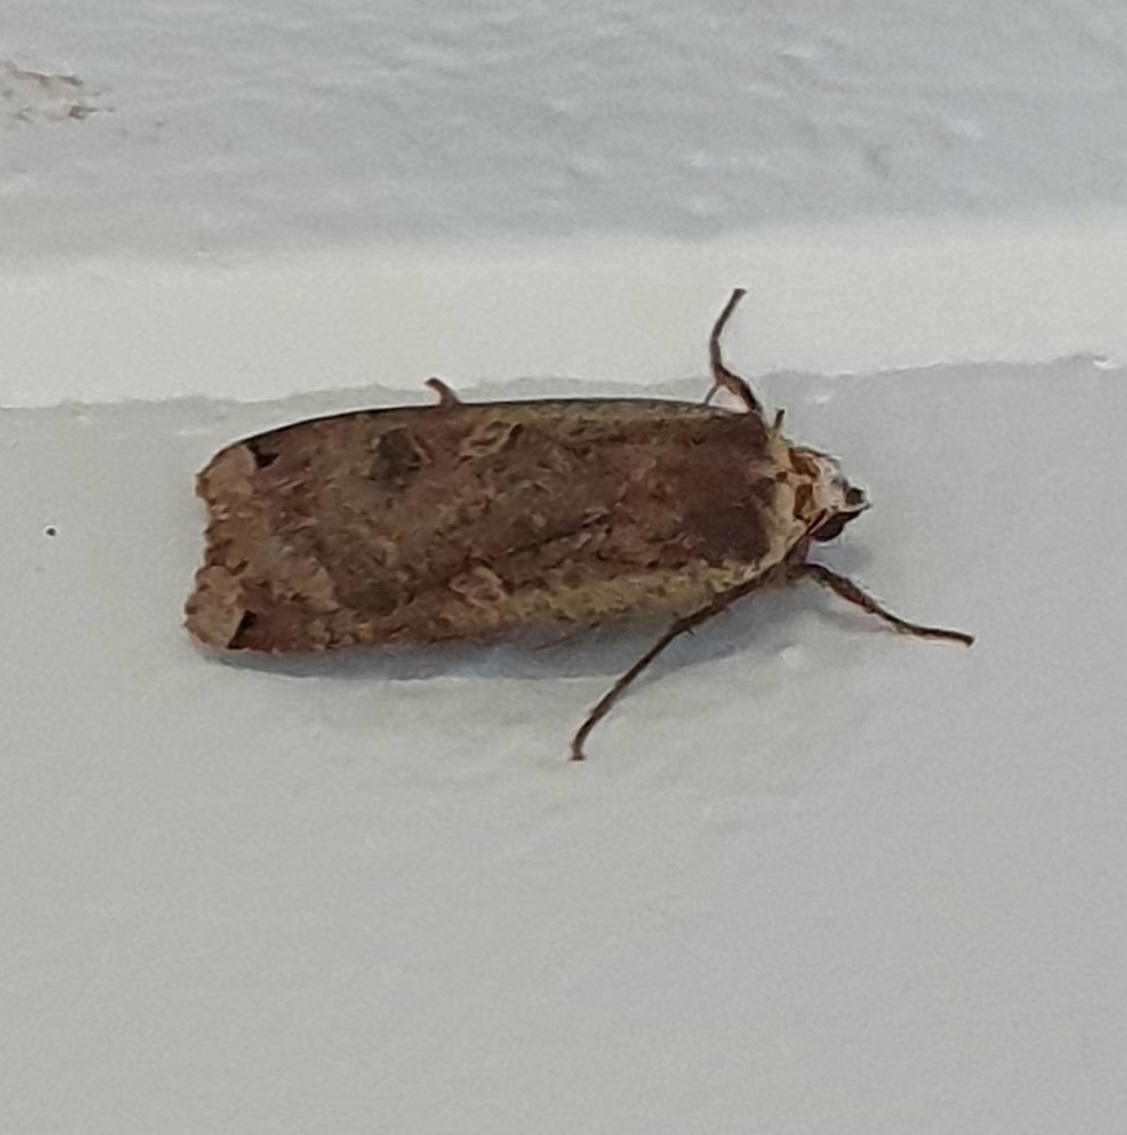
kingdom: Animalia
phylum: Arthropoda
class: Insecta
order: Lepidoptera
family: Noctuidae
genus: Noctua
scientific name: Noctua pronuba
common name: Large yellow underwing
